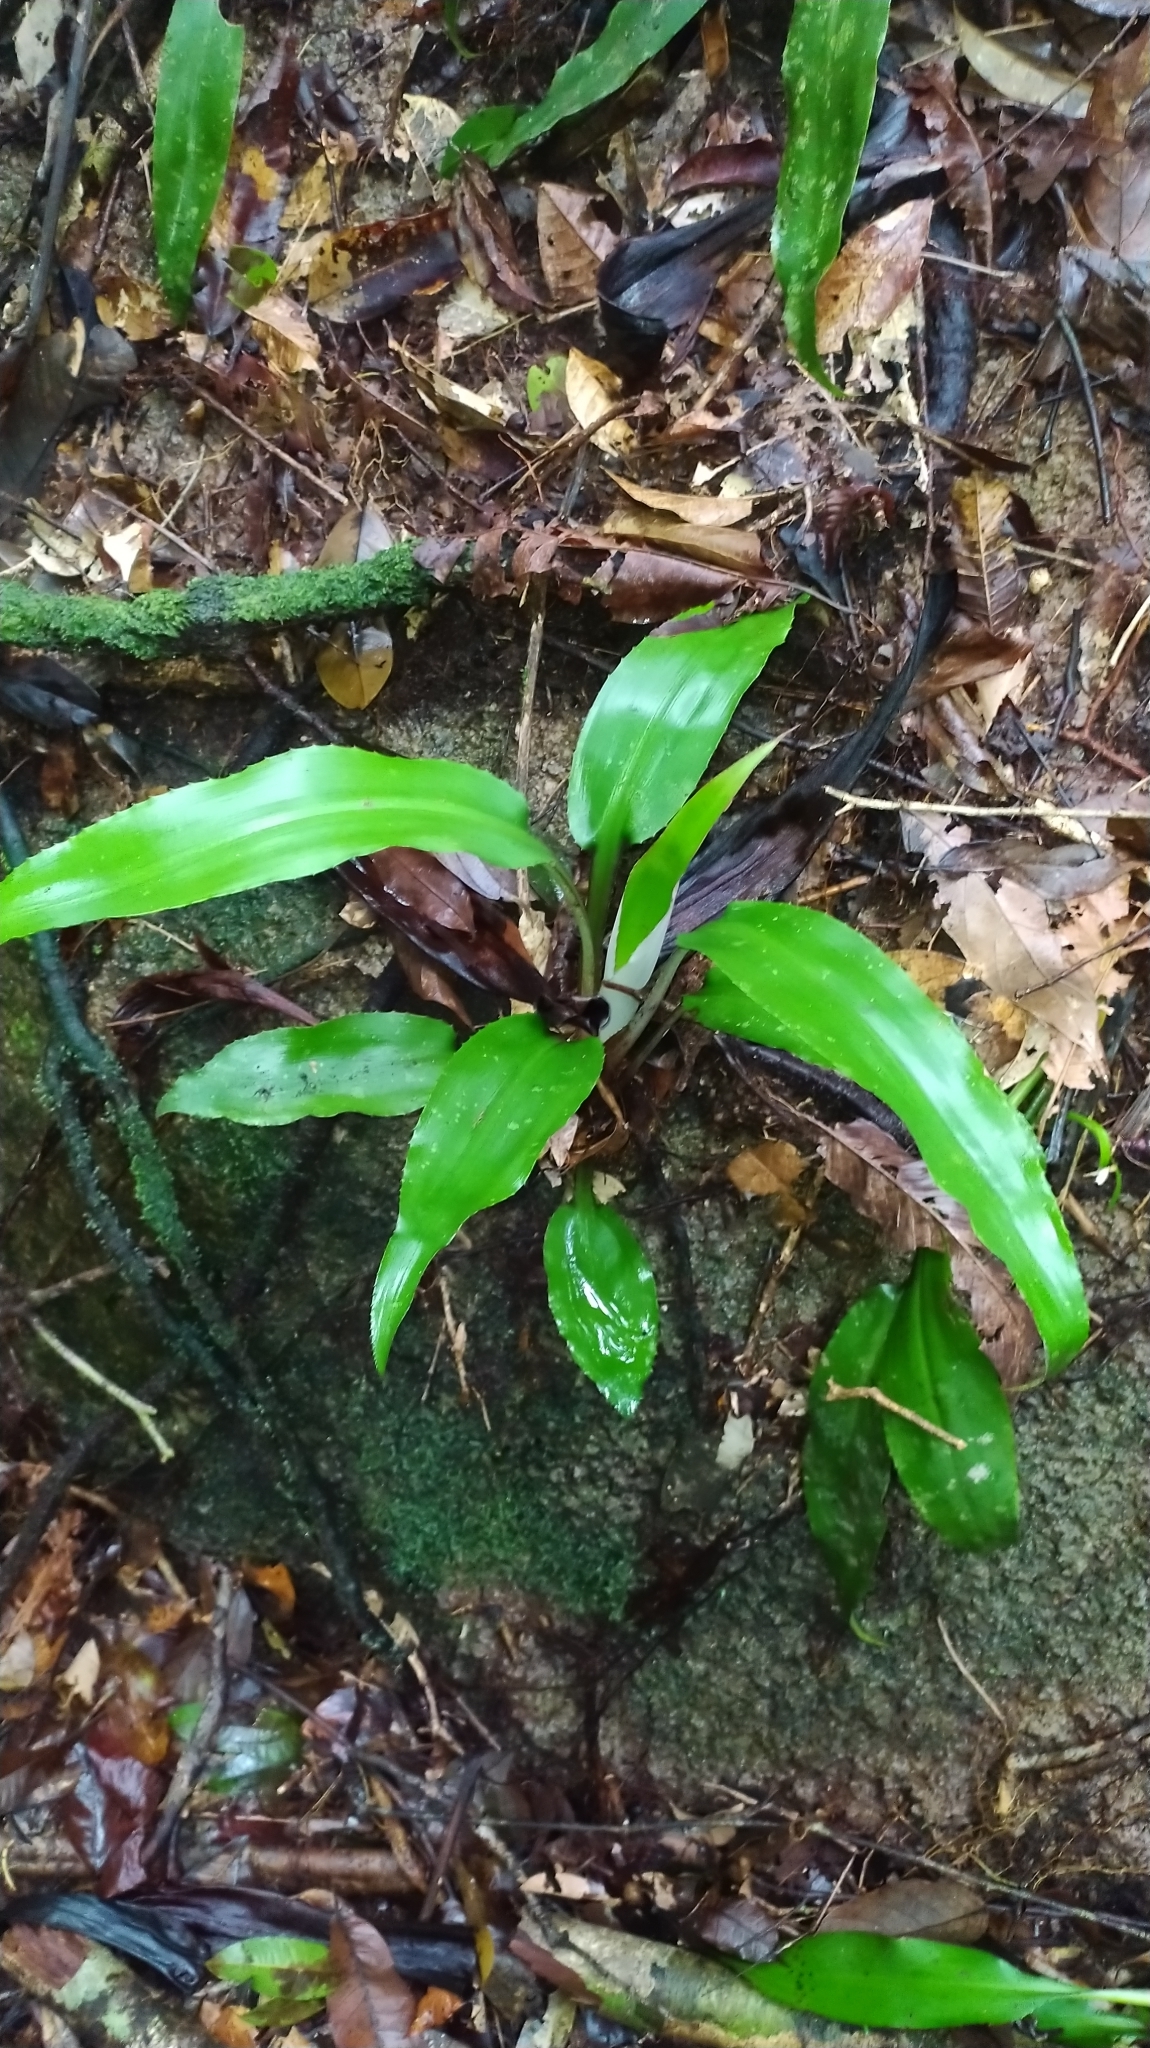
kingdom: Plantae
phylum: Tracheophyta
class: Liliopsida
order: Poales
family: Bromeliaceae
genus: Disteganthus
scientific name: Disteganthus basilateralis
